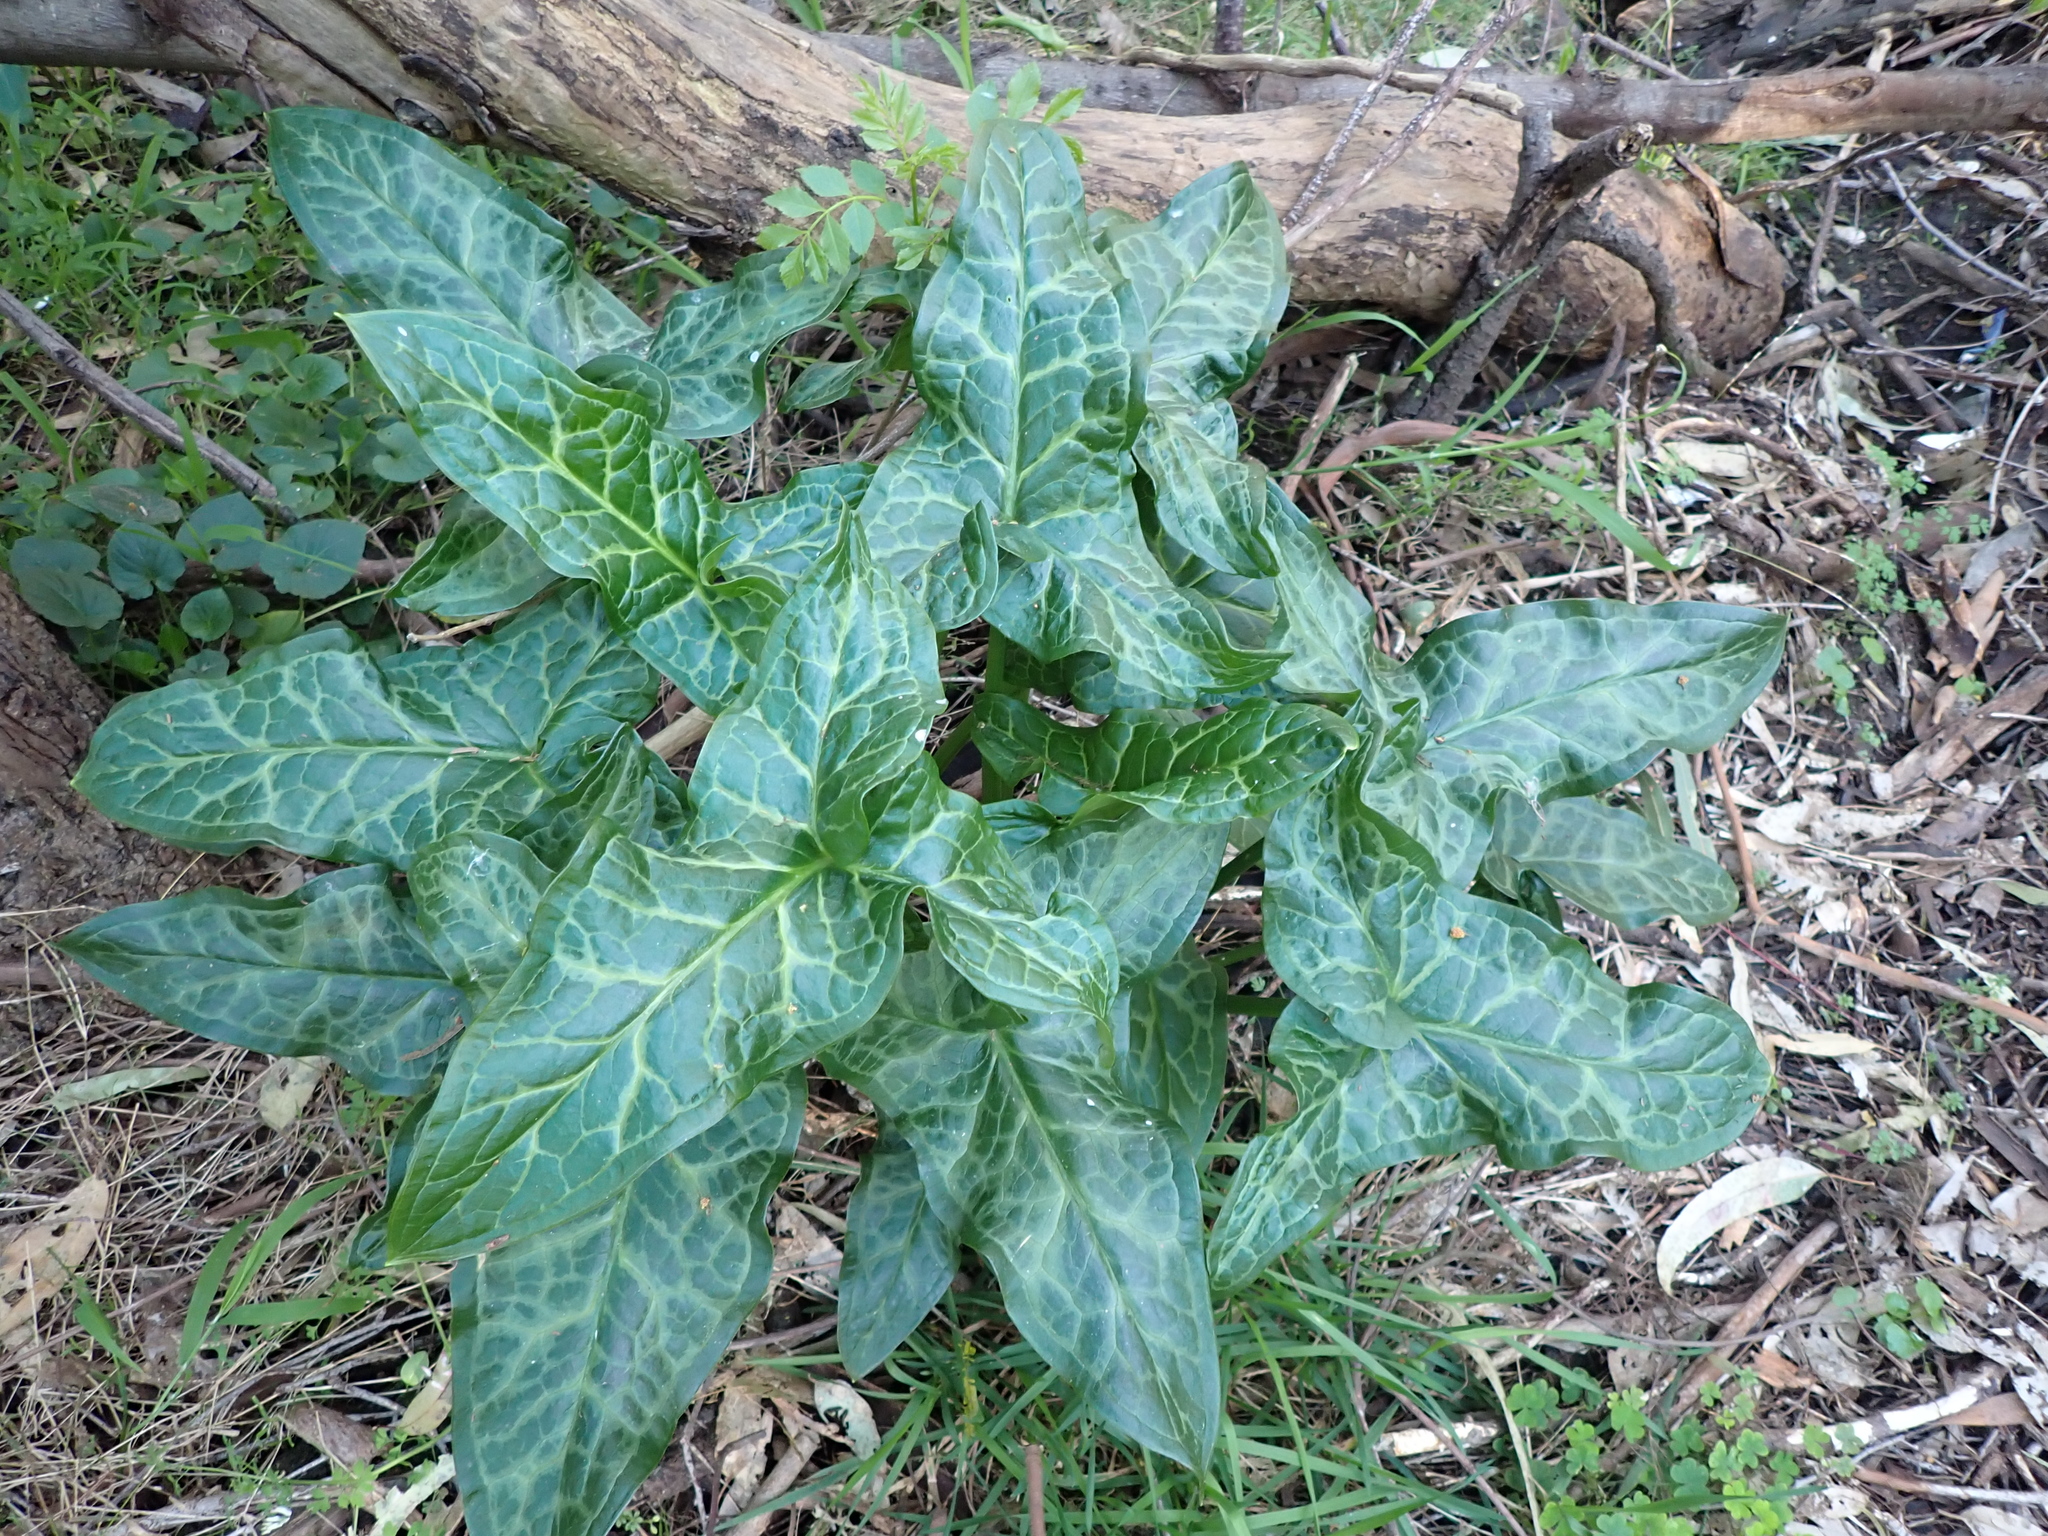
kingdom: Plantae
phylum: Tracheophyta
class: Liliopsida
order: Alismatales
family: Araceae
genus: Arum
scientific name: Arum italicum
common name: Italian lords-and-ladies
